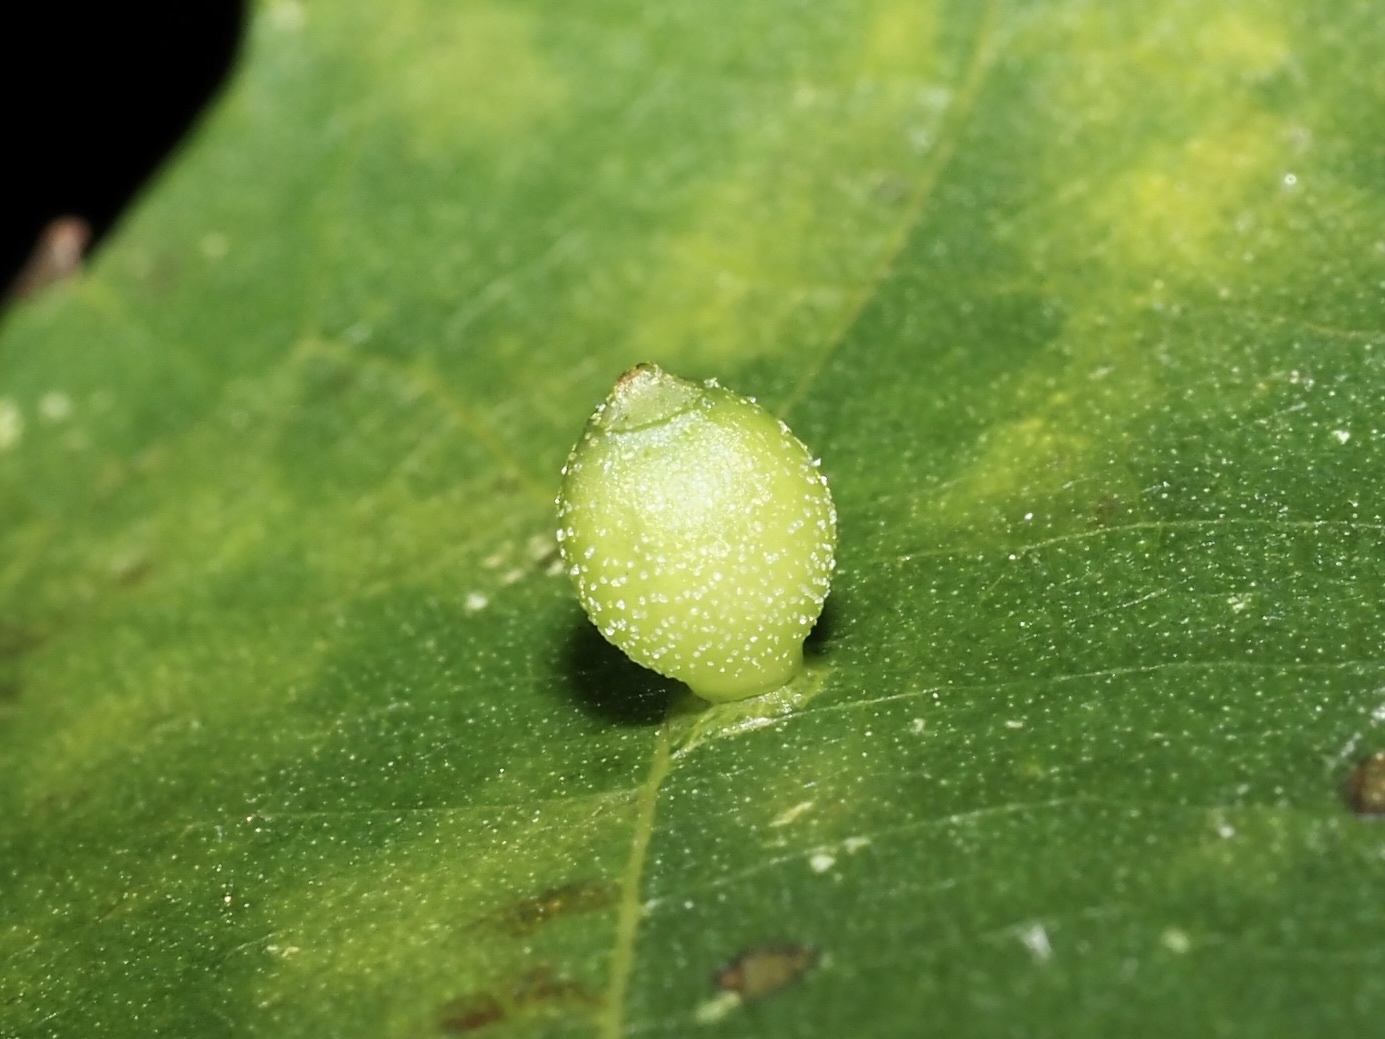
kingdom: Animalia
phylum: Arthropoda
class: Insecta
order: Diptera
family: Cecidomyiidae
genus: Caryomyia
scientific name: Caryomyia viscidolium
